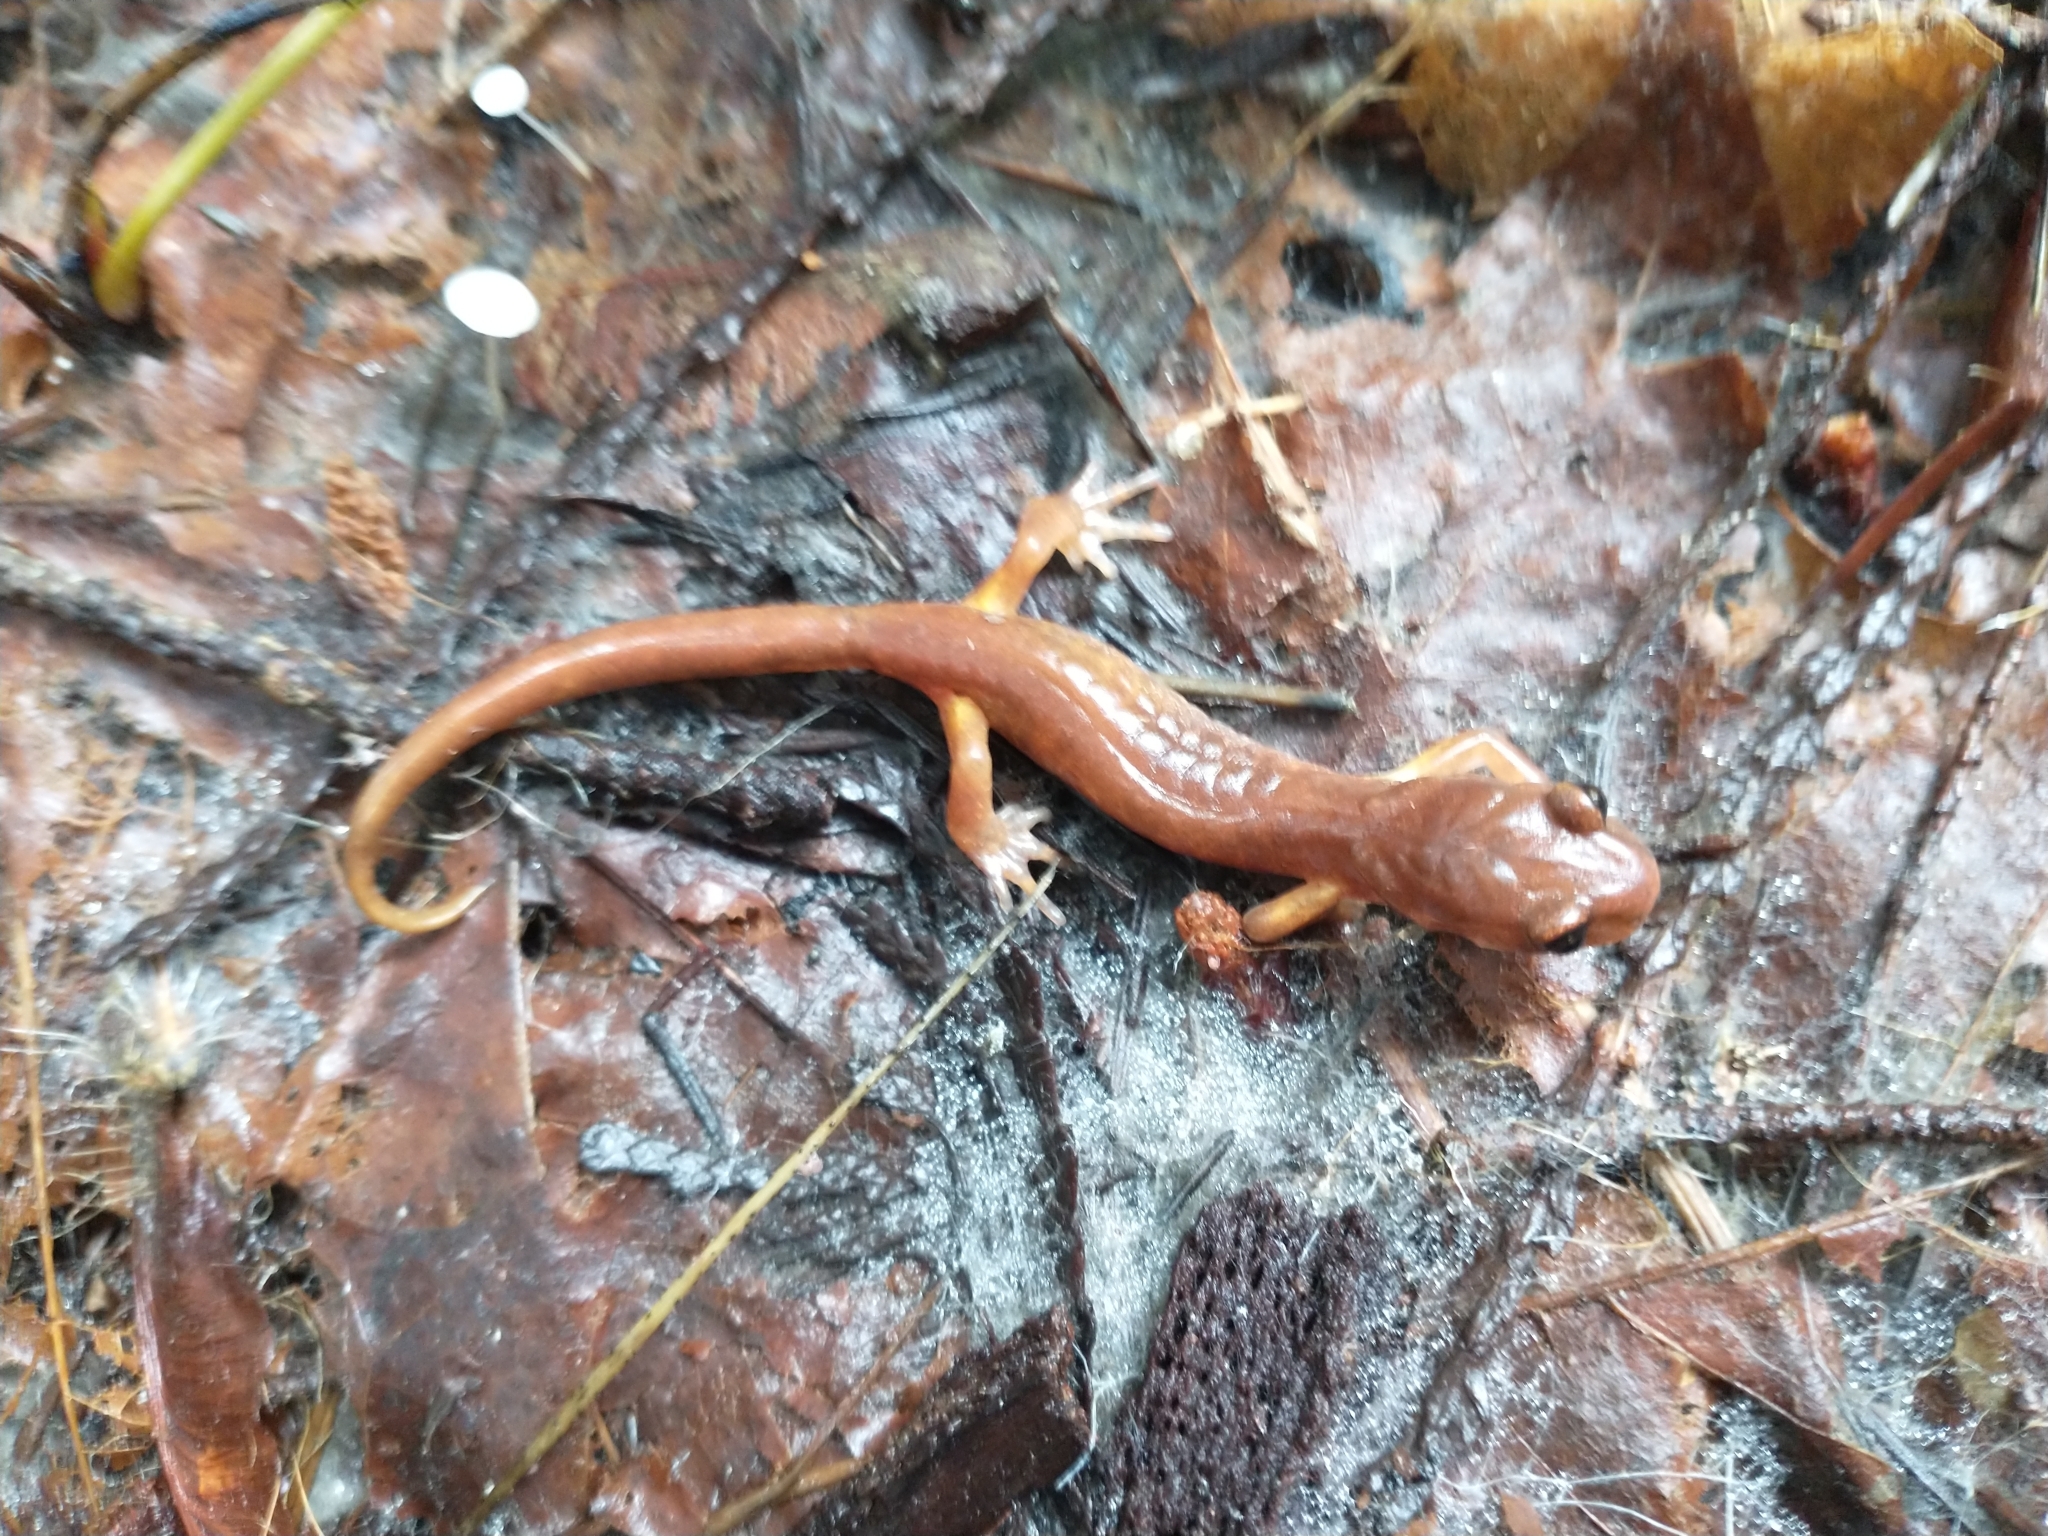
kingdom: Animalia
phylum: Chordata
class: Amphibia
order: Caudata
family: Plethodontidae
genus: Ensatina
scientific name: Ensatina eschscholtzii
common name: Ensatina
